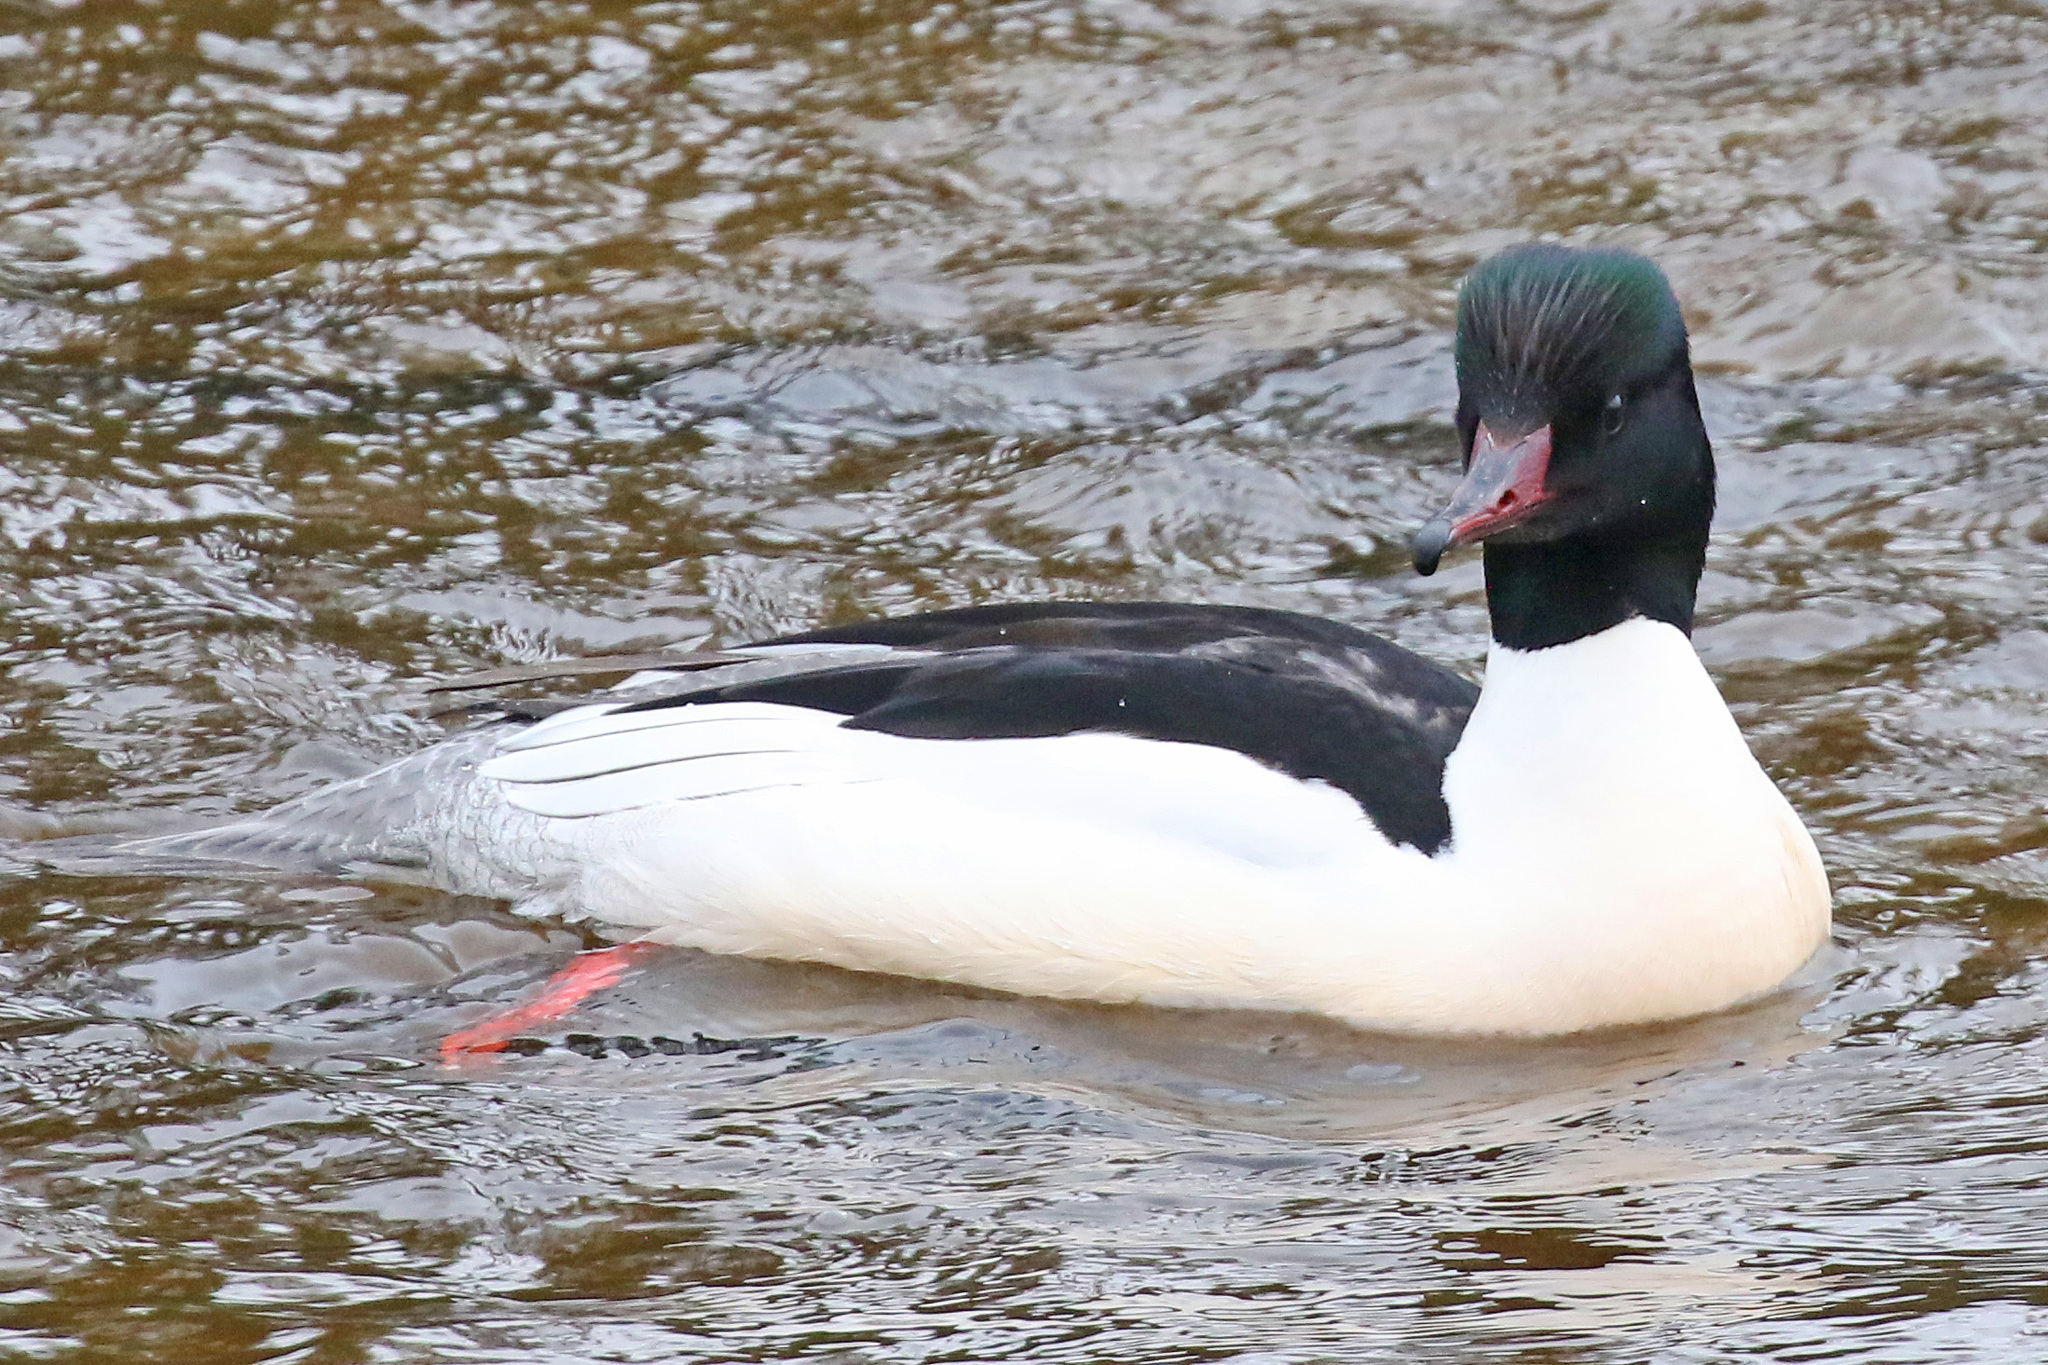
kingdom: Animalia
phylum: Chordata
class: Aves
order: Anseriformes
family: Anatidae
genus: Mergus
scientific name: Mergus merganser
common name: Common merganser
